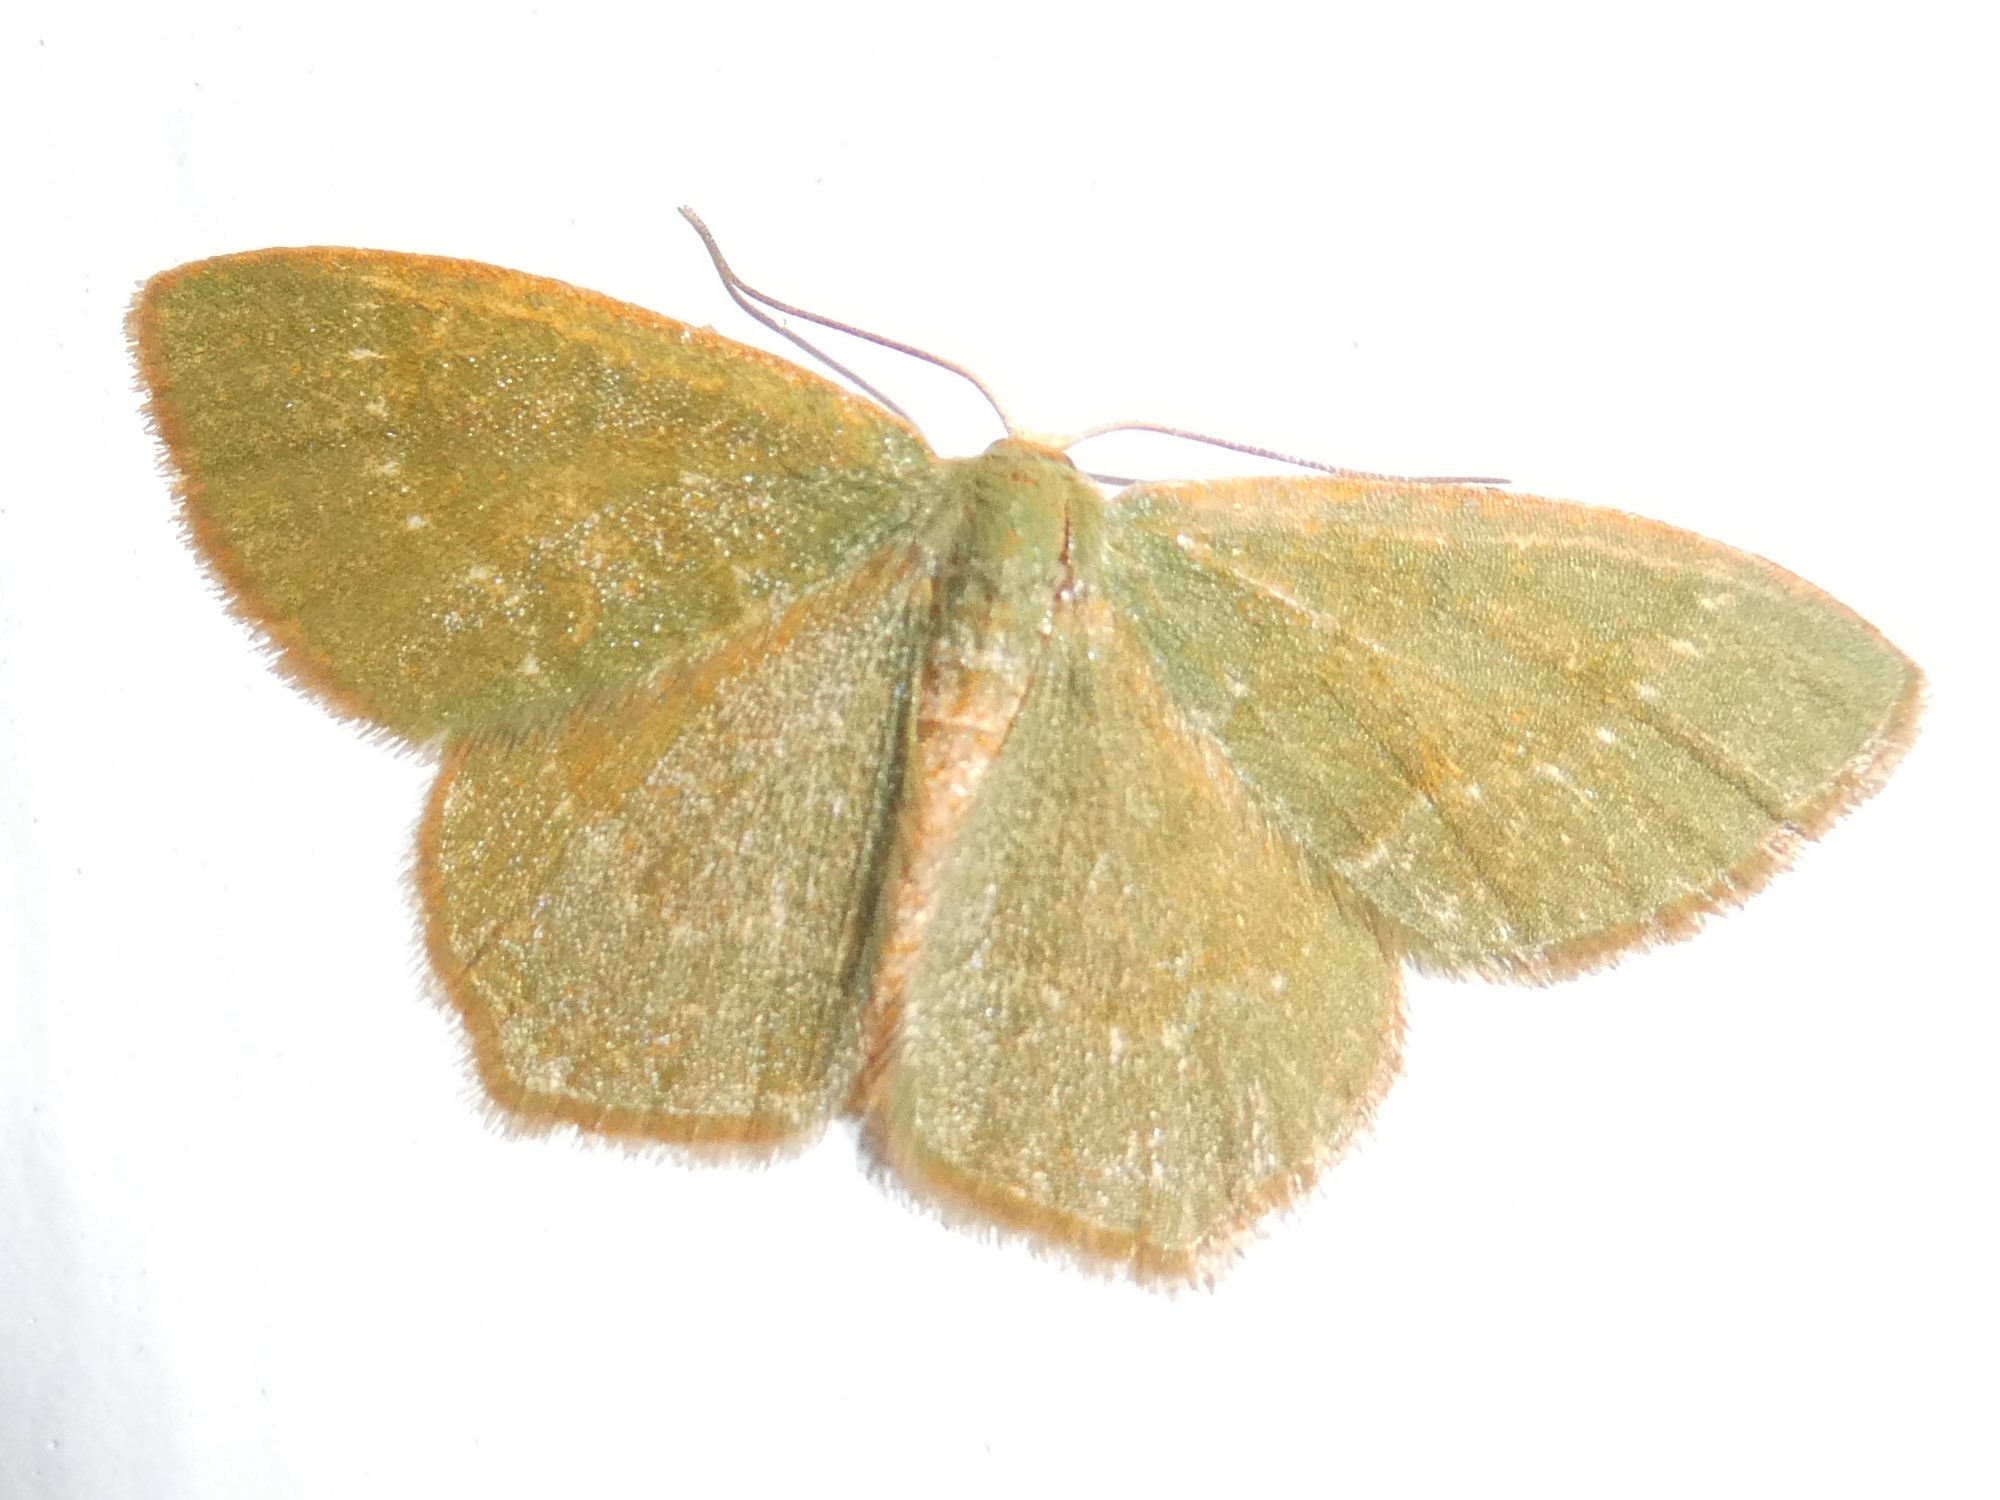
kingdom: Animalia
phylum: Arthropoda
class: Insecta
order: Lepidoptera
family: Geometridae
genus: Thalera
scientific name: Thalera pistasciaria
